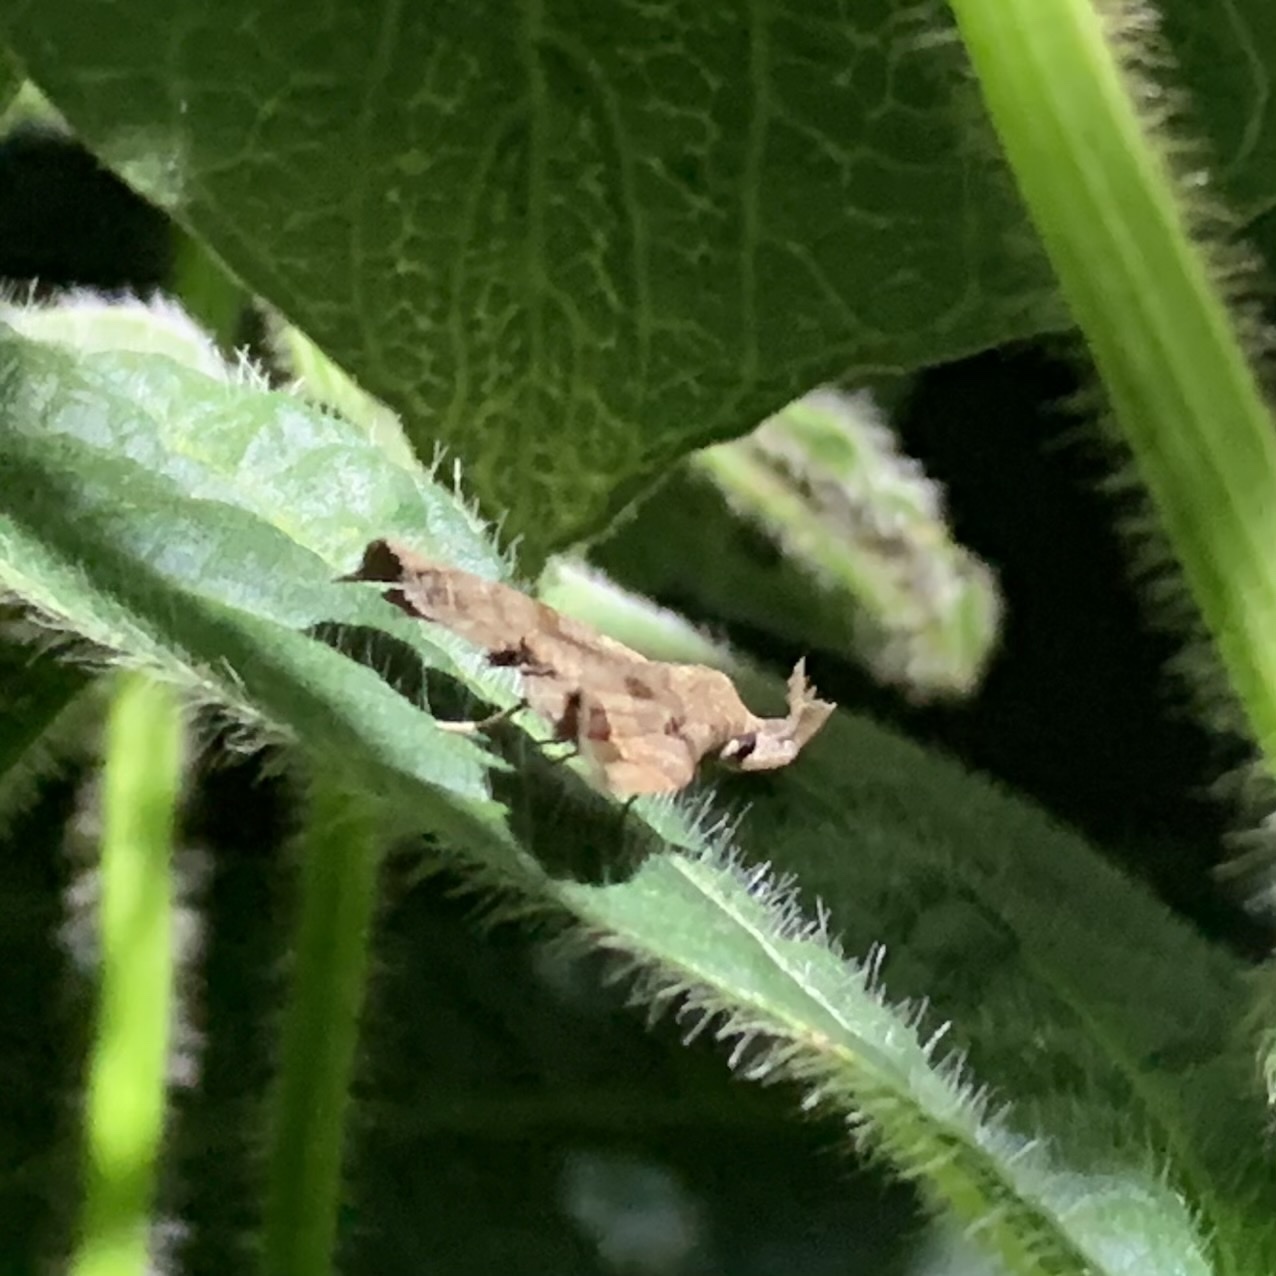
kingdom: Animalia
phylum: Arthropoda
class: Insecta
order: Lepidoptera
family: Erebidae
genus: Palthis
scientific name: Palthis asopialis
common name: Faint-spotted palthis moth
